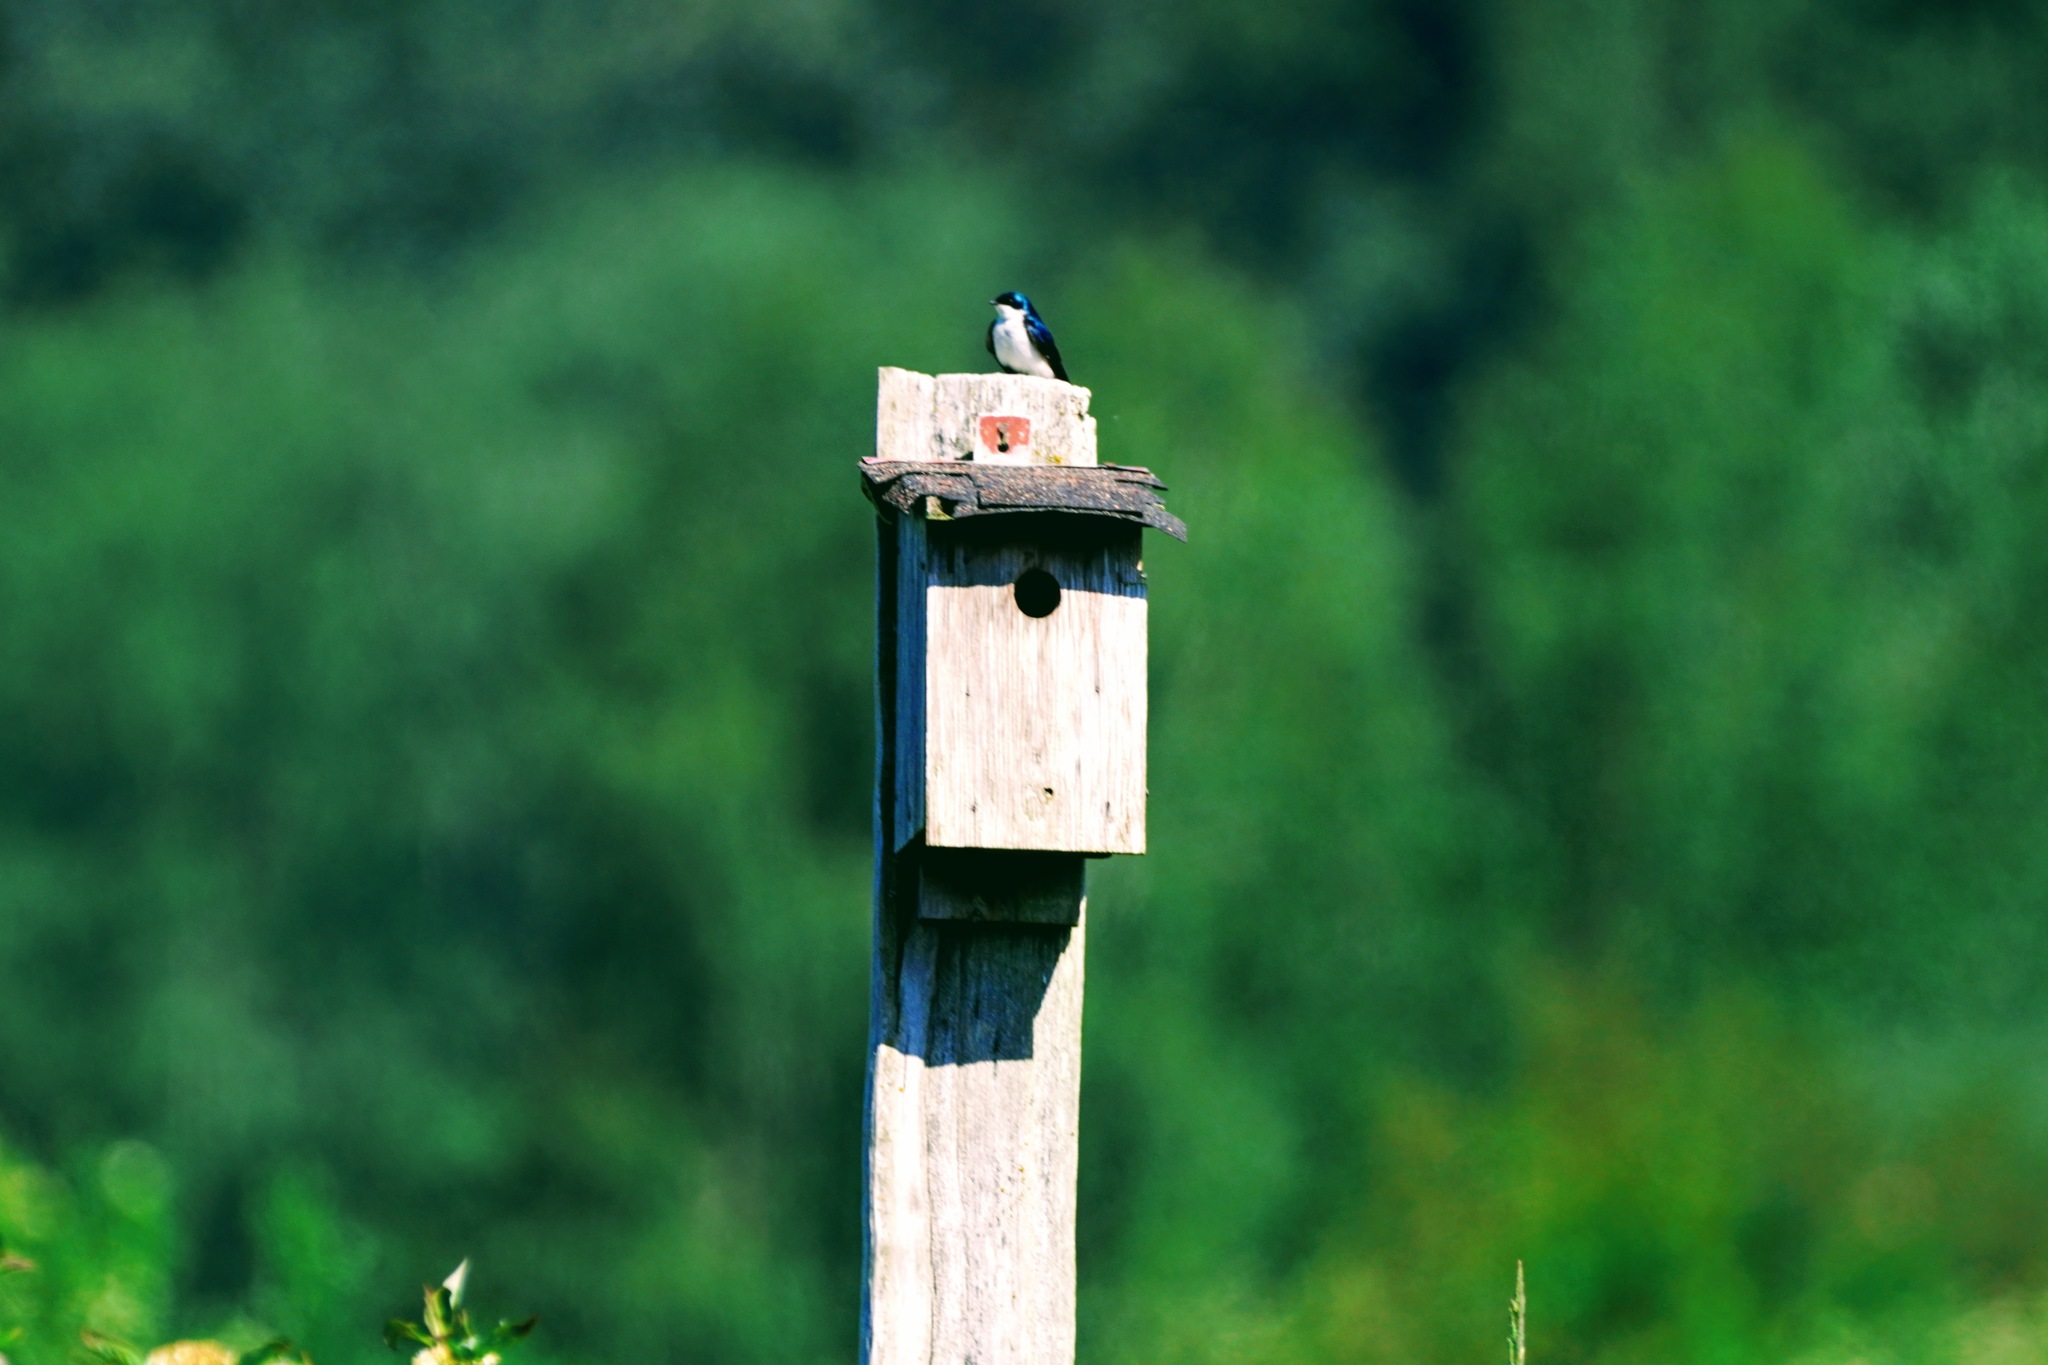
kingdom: Animalia
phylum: Chordata
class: Aves
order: Passeriformes
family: Hirundinidae
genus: Tachycineta
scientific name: Tachycineta bicolor
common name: Tree swallow
